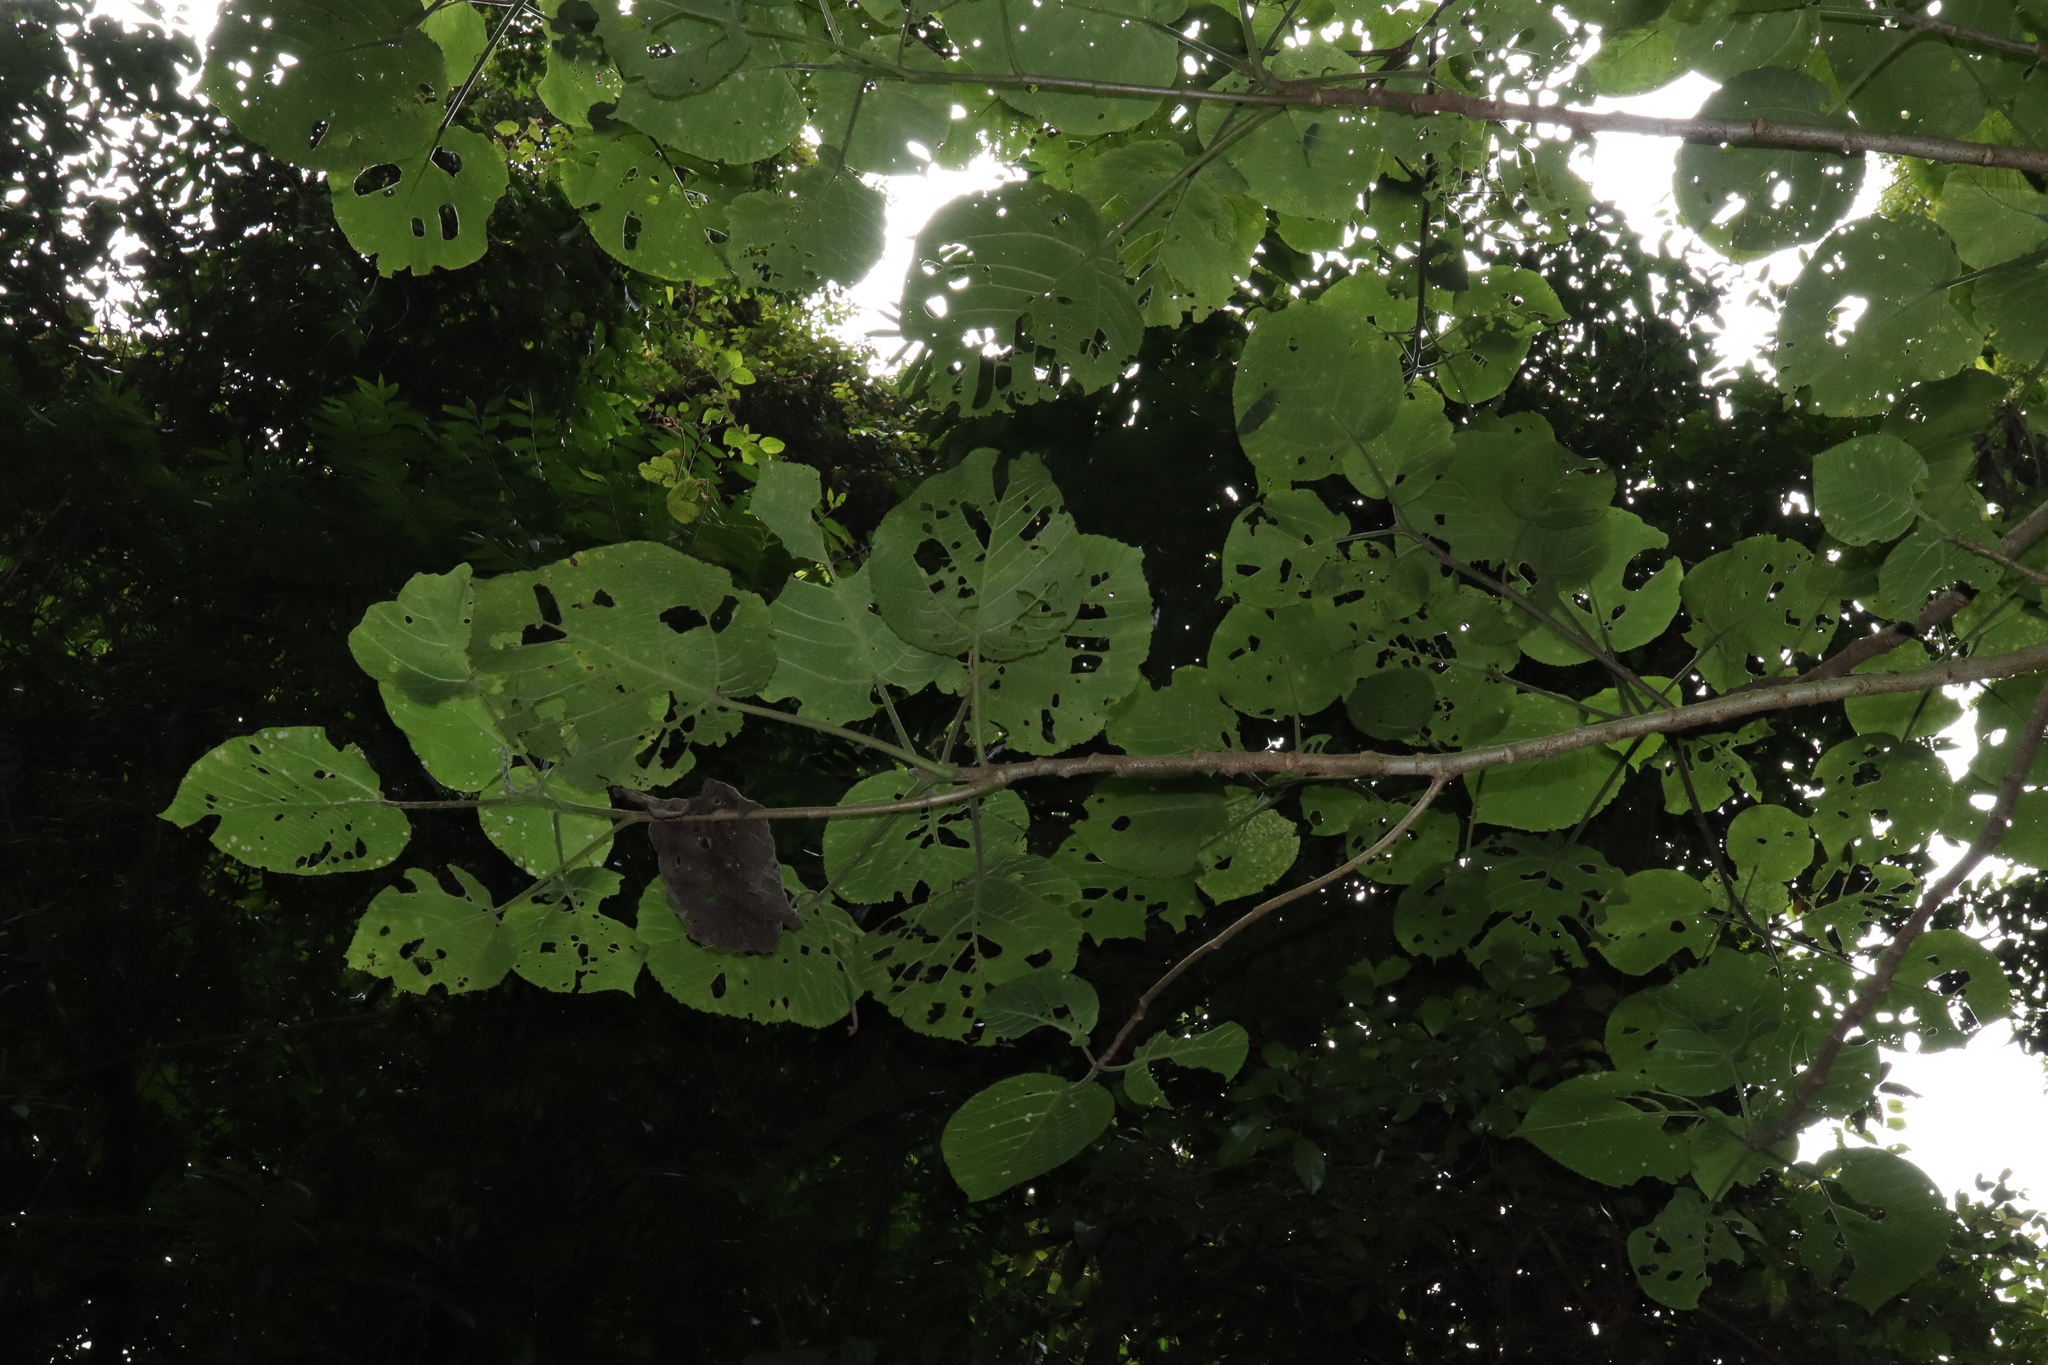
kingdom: Plantae
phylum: Tracheophyta
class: Magnoliopsida
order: Rosales
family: Urticaceae
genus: Dendrocnide
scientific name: Dendrocnide excelsa
